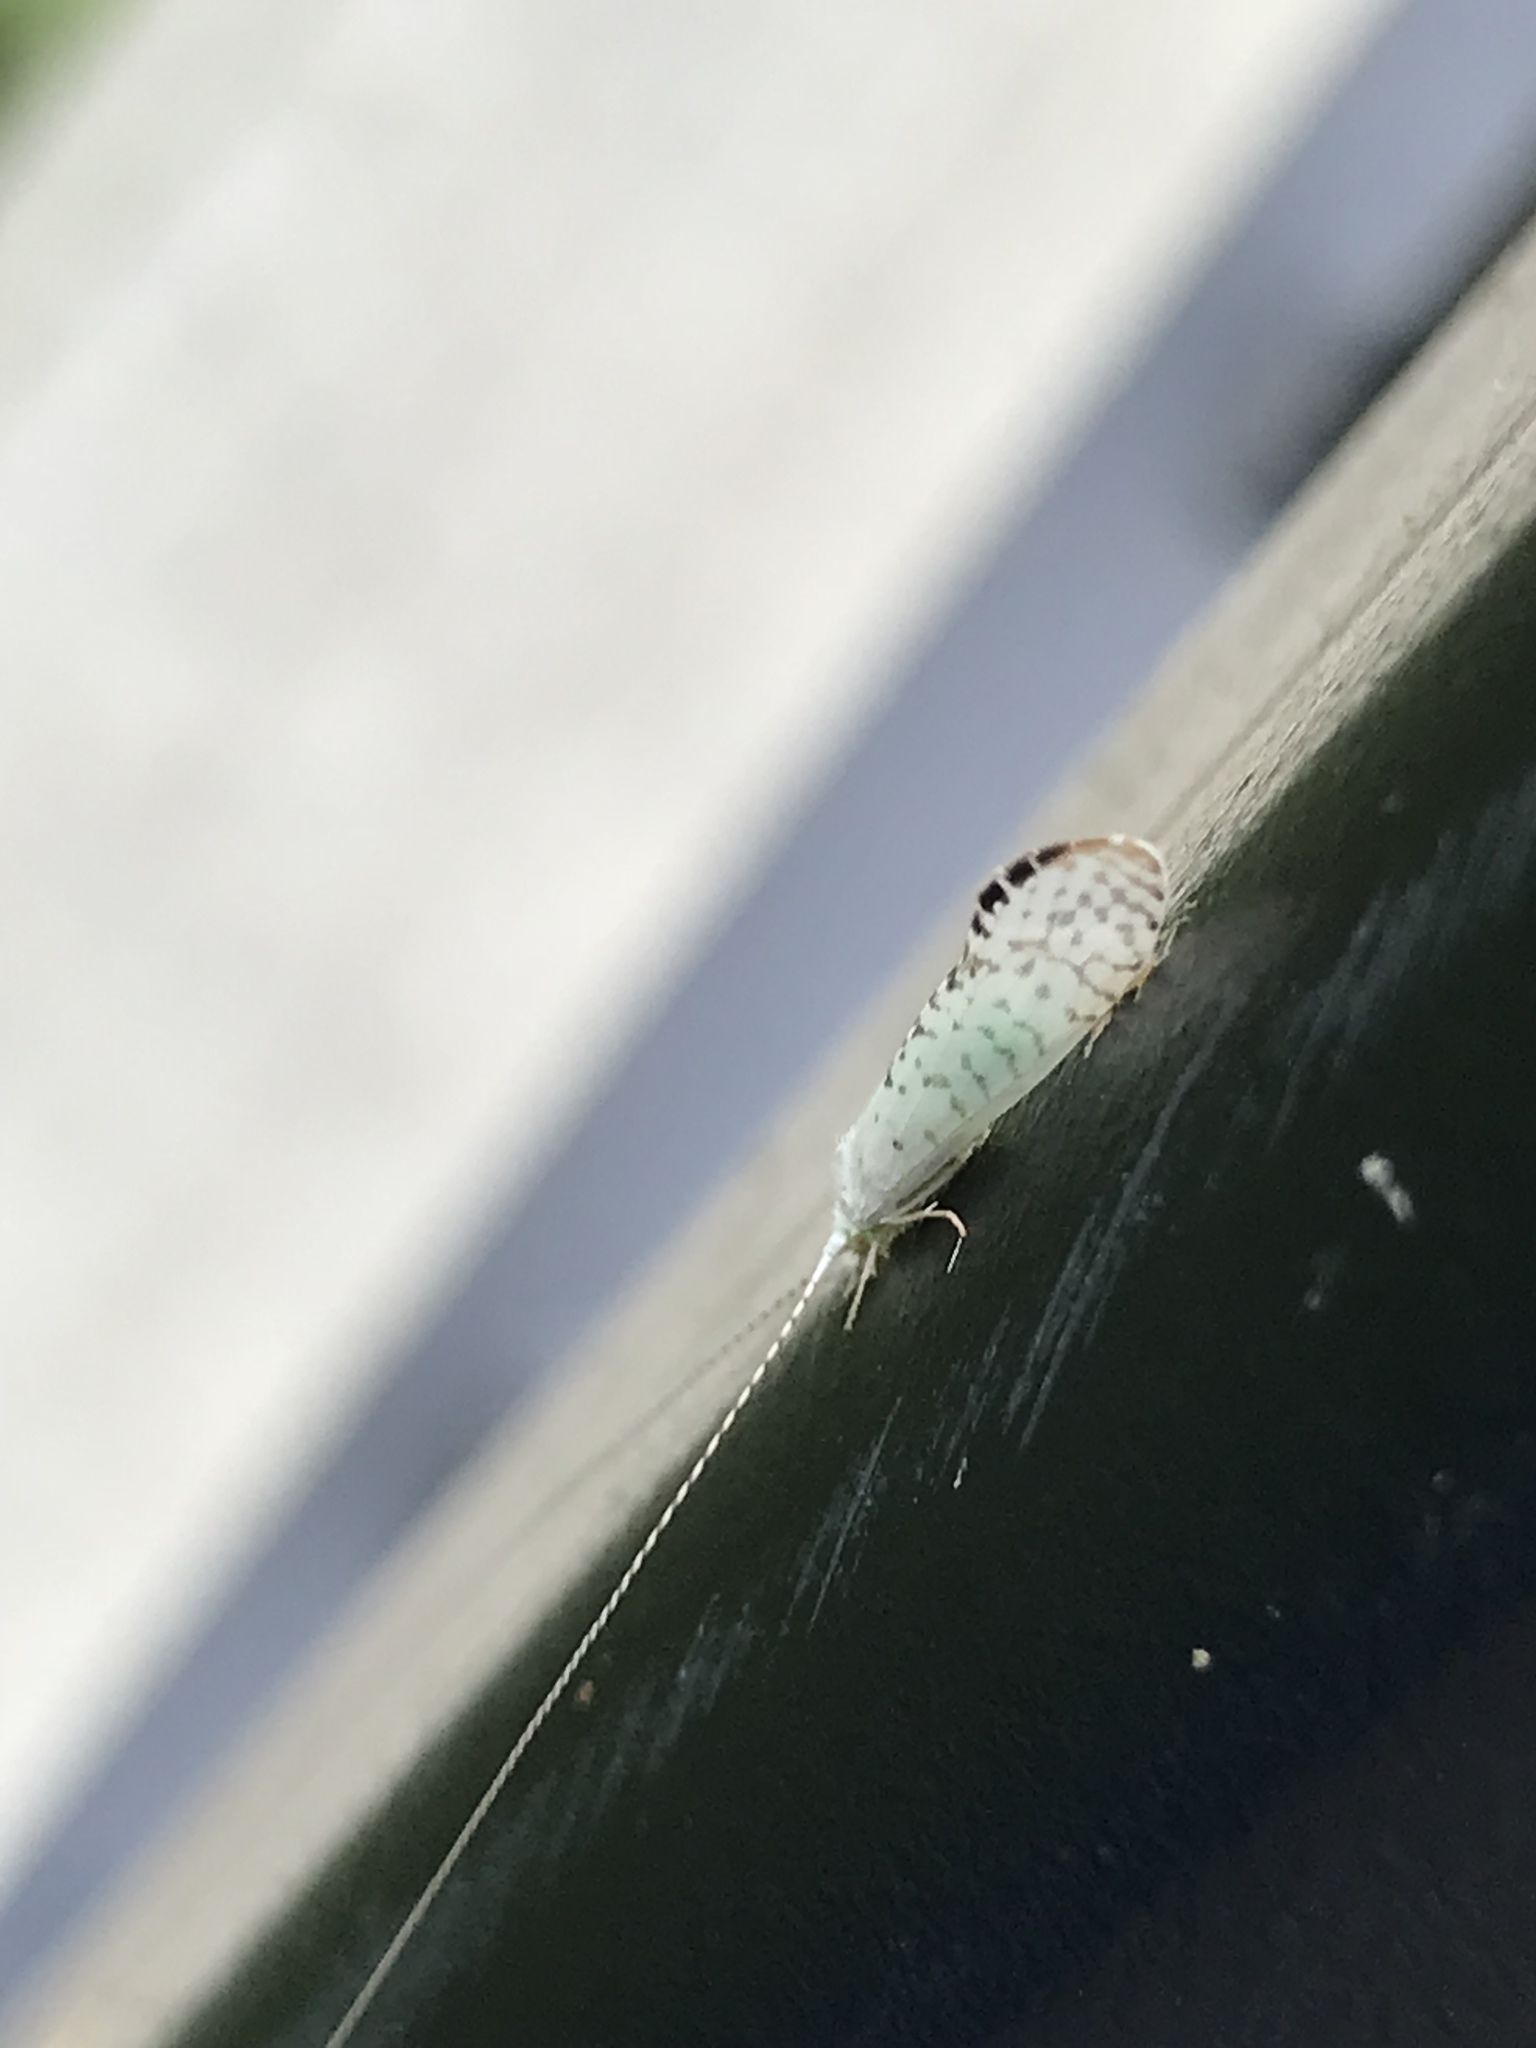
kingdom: Animalia
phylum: Arthropoda
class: Insecta
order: Trichoptera
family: Leptoceridae
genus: Nectopsyche
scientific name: Nectopsyche candida
